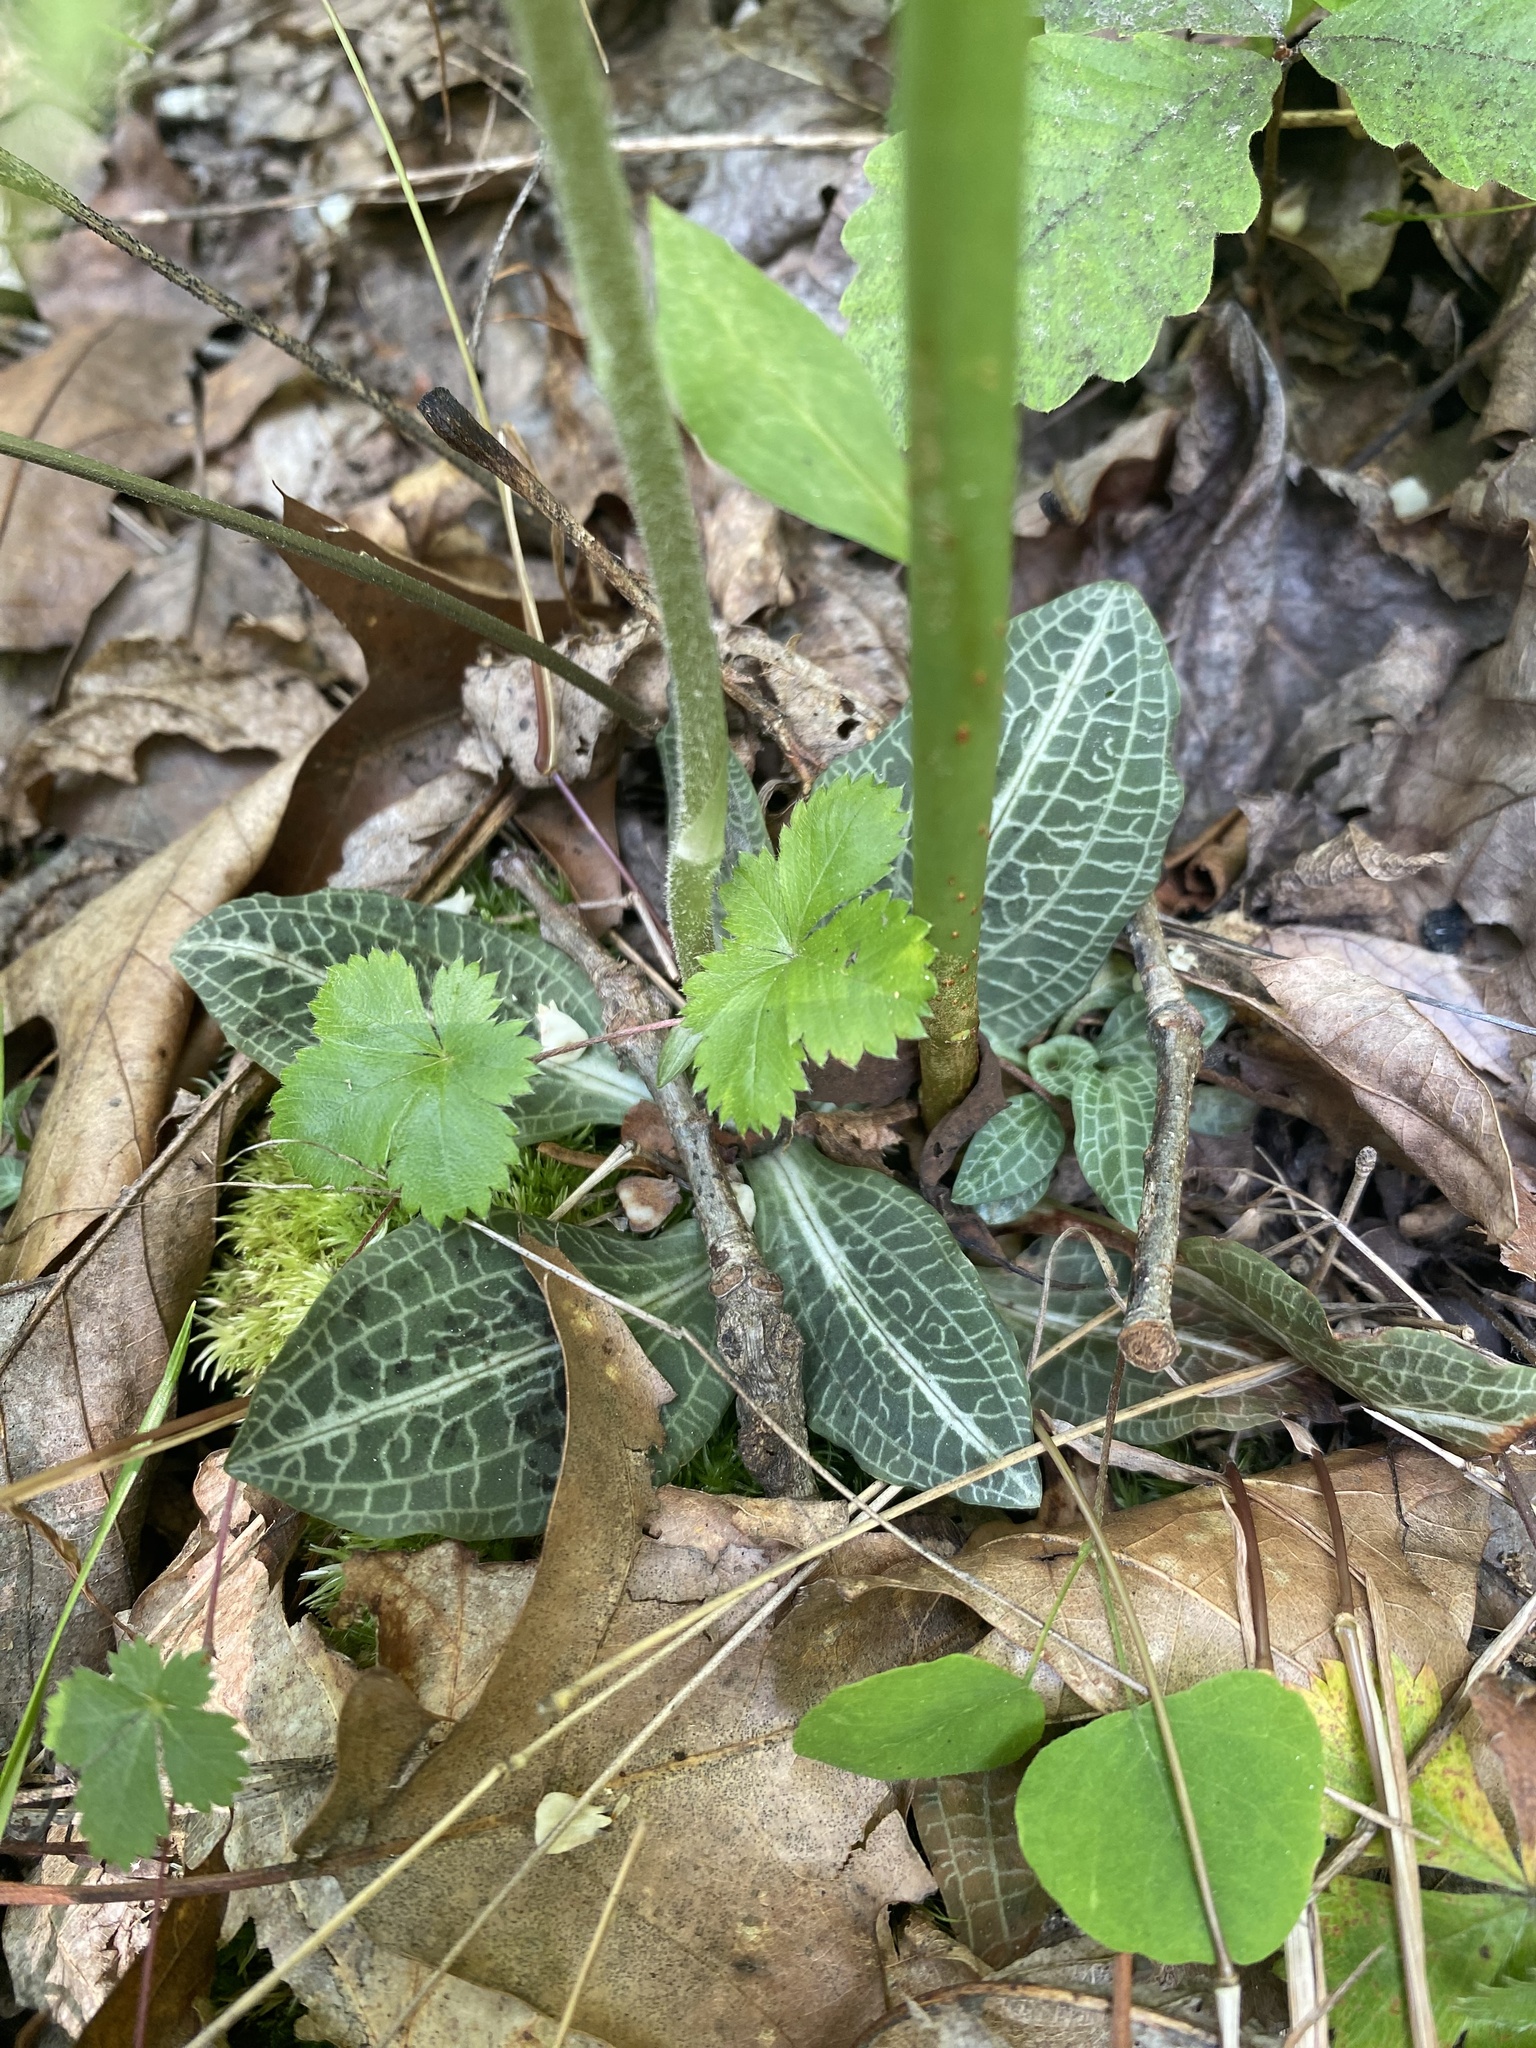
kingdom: Plantae
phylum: Tracheophyta
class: Liliopsida
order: Asparagales
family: Orchidaceae
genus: Goodyera
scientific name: Goodyera pubescens
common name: Downy rattlesnake-plantain
